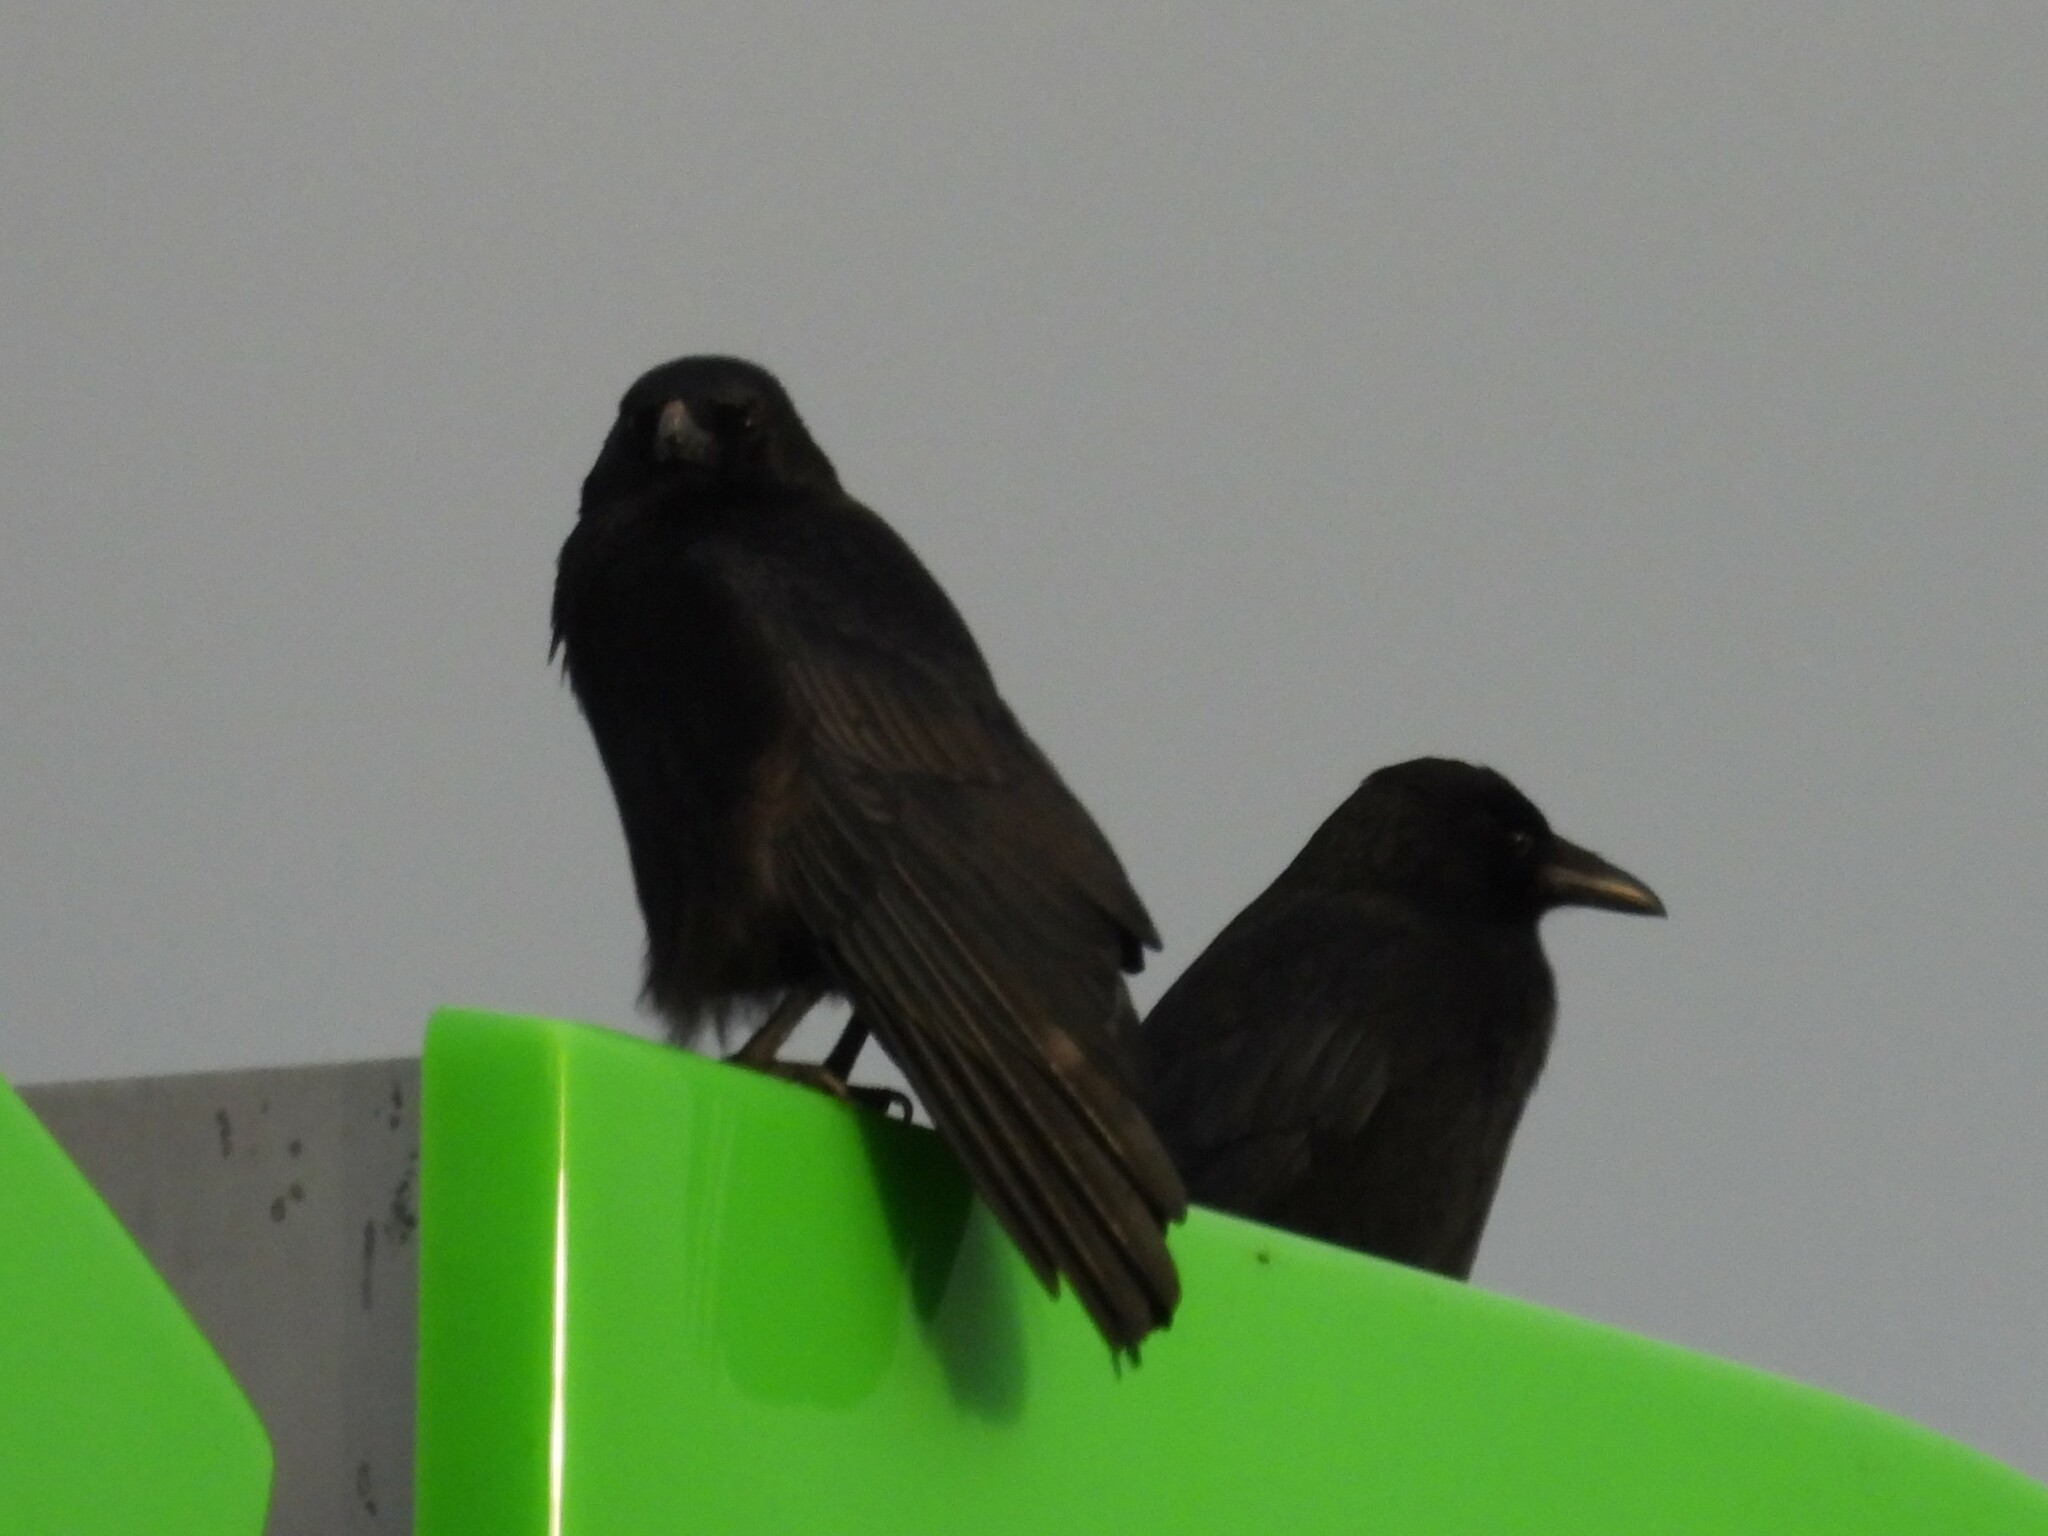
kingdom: Animalia
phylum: Chordata
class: Aves
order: Passeriformes
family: Corvidae
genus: Corvus
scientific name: Corvus corone
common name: Carrion crow
